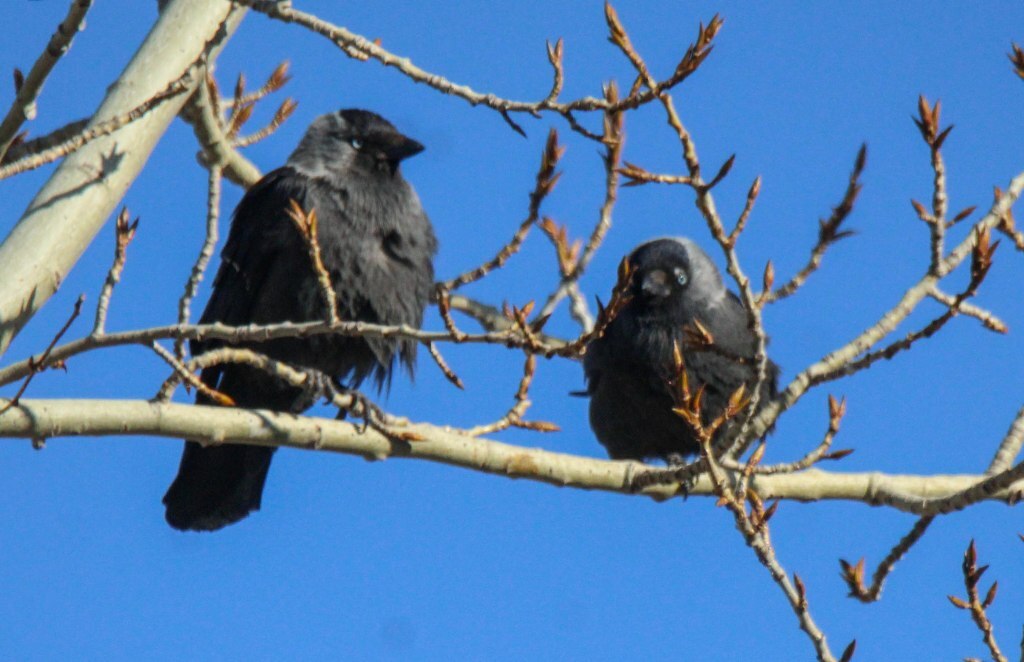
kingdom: Animalia
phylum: Chordata
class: Aves
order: Passeriformes
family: Corvidae
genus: Coloeus
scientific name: Coloeus monedula
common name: Western jackdaw
